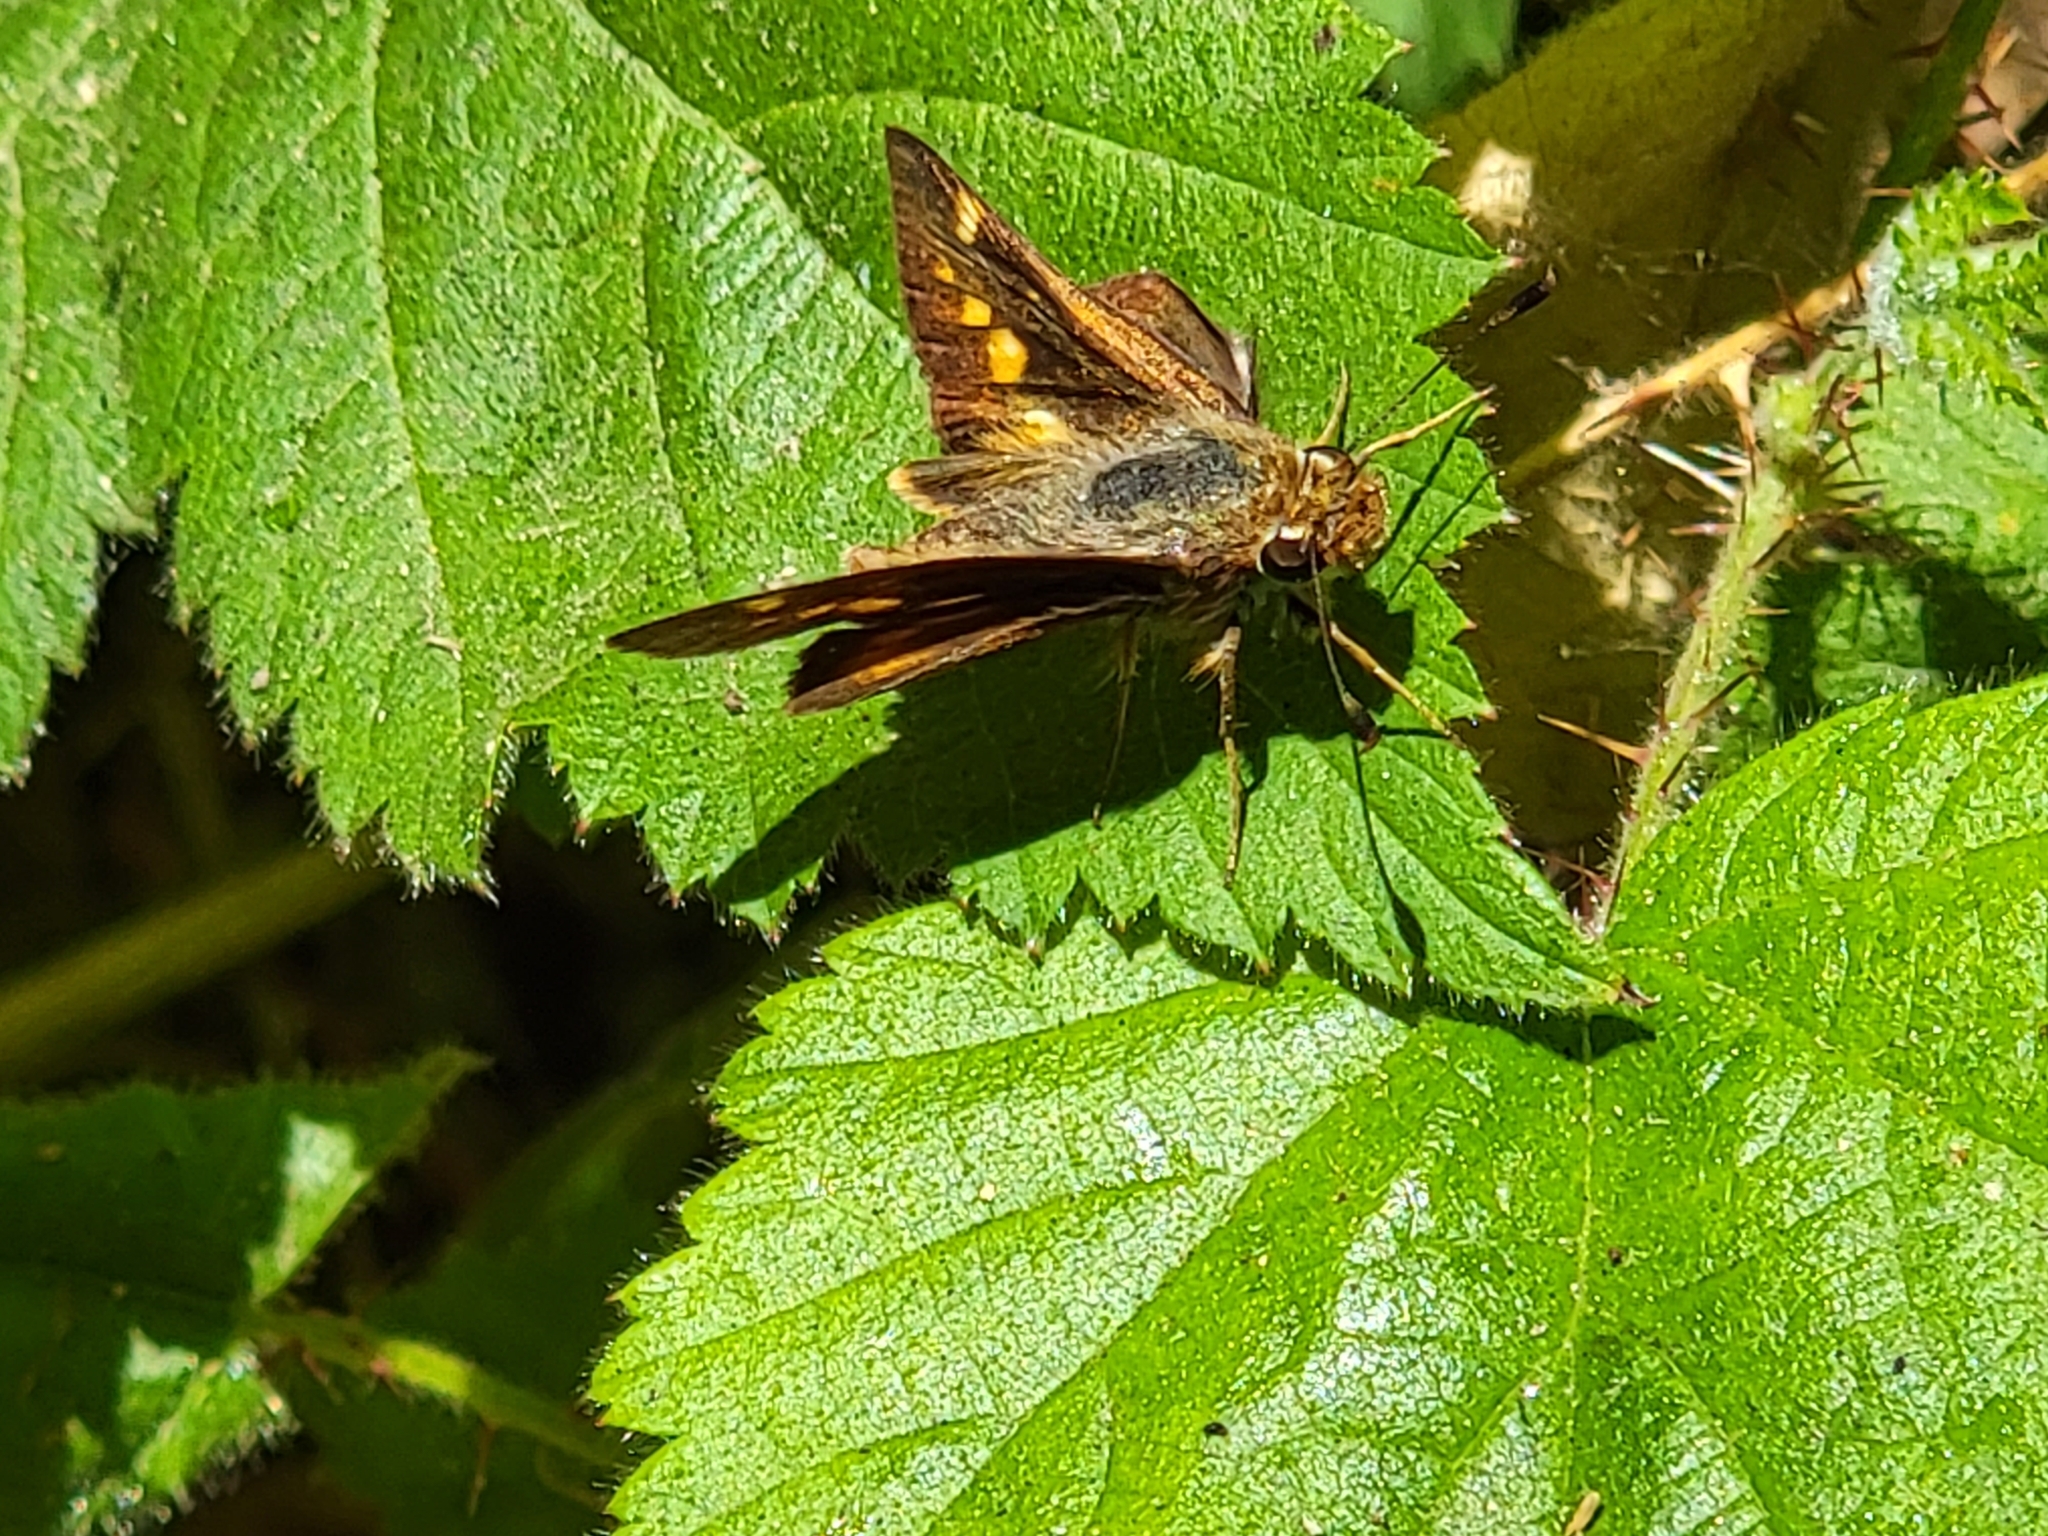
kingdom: Animalia
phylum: Arthropoda
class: Insecta
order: Lepidoptera
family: Hesperiidae
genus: Lon
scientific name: Lon melane
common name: Umber skipper
